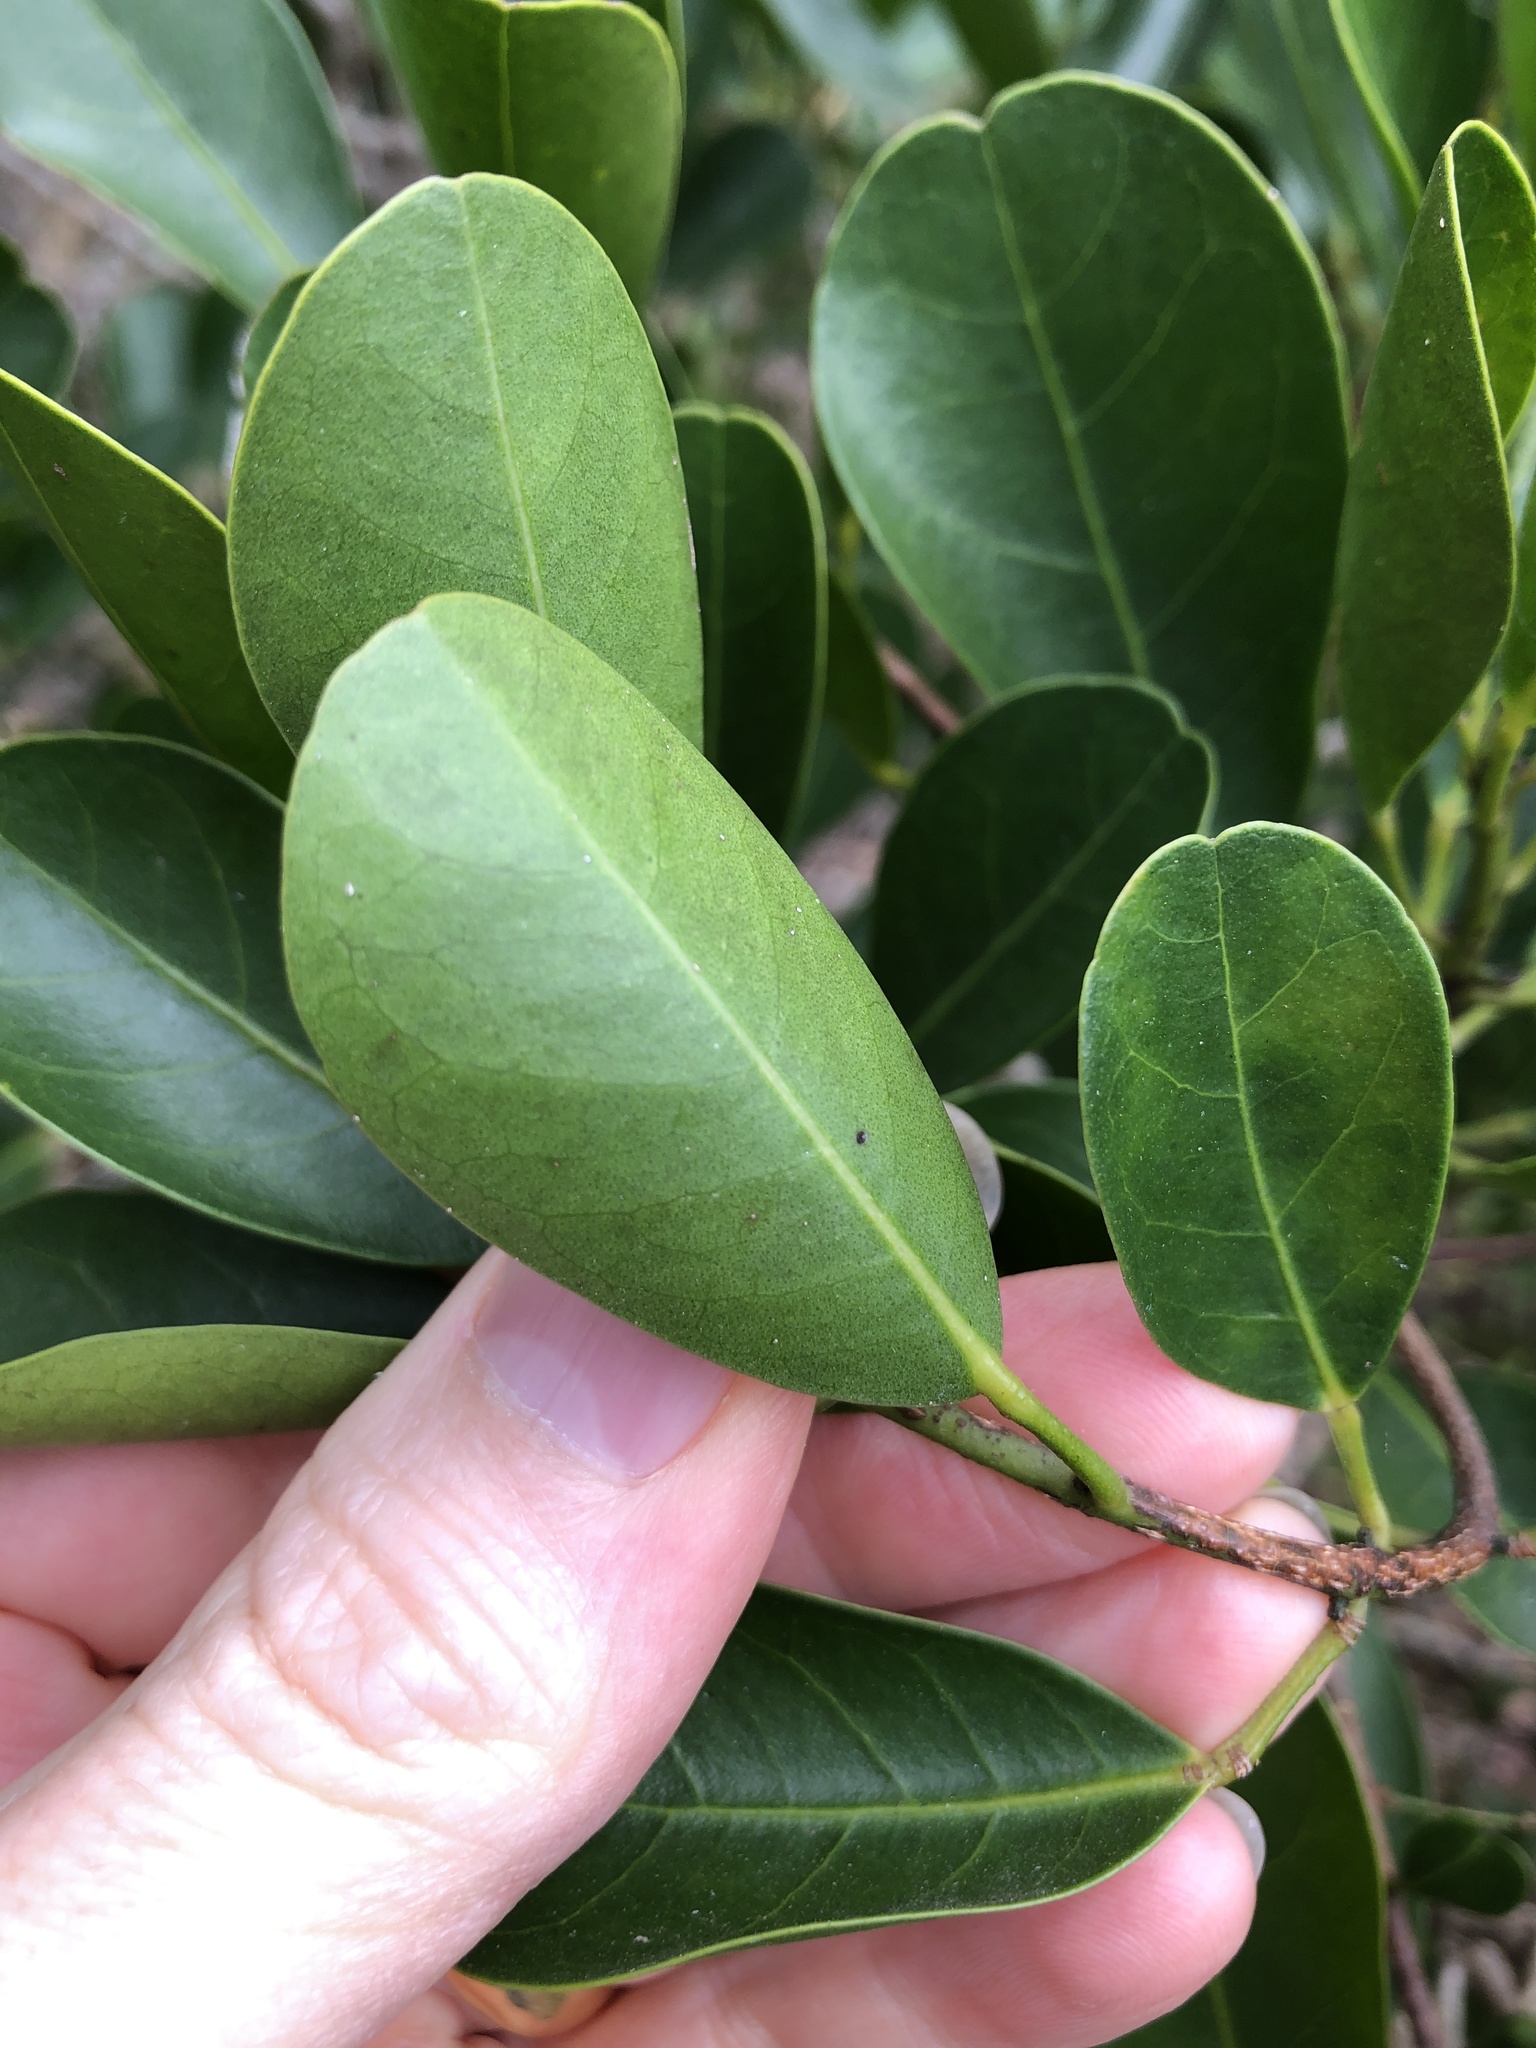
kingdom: Plantae
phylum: Tracheophyta
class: Magnoliopsida
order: Sapindales
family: Rutaceae
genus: Acronychia
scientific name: Acronychia laevis
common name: Hard aspen
